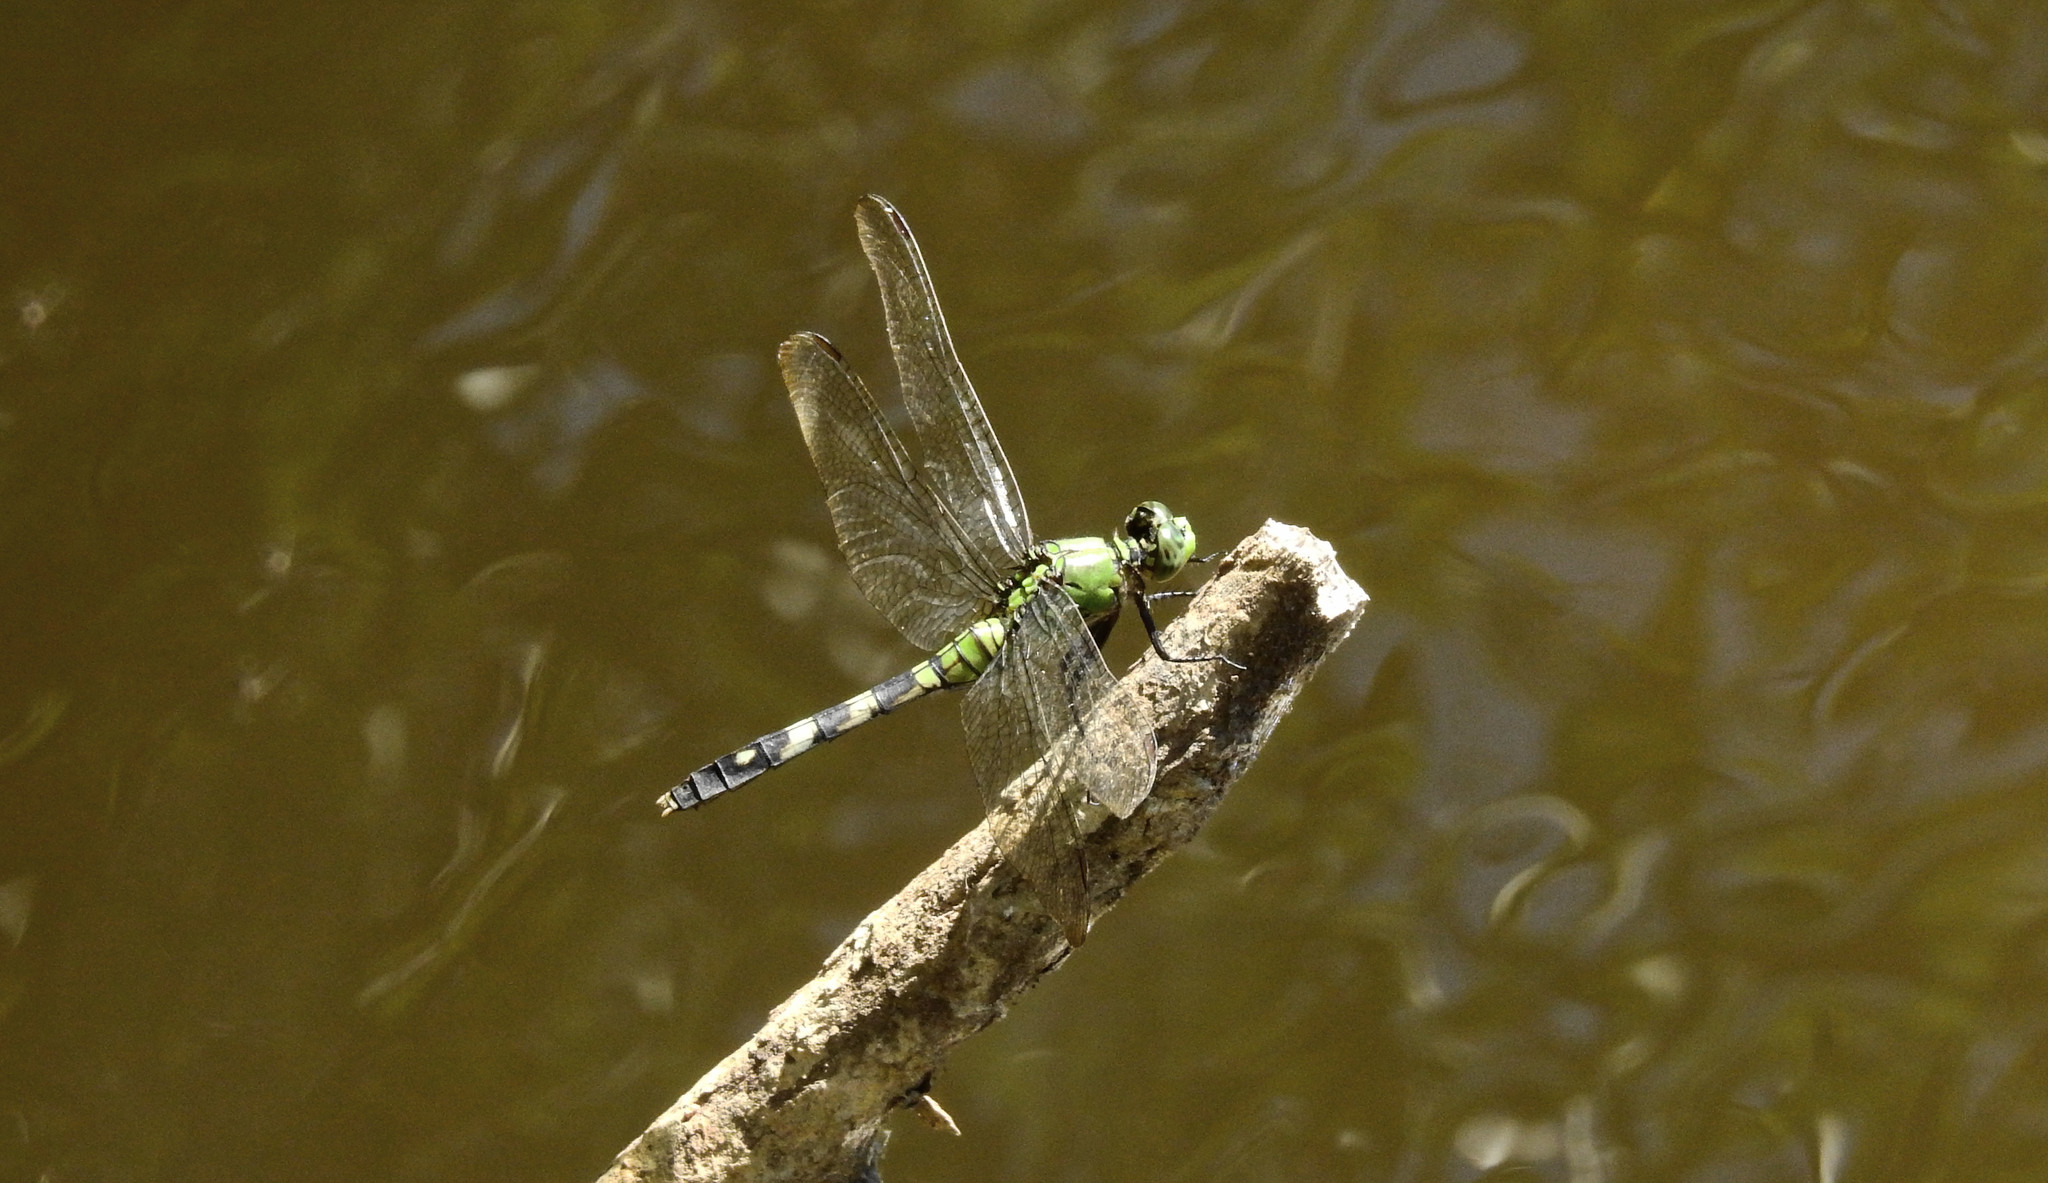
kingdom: Animalia
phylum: Arthropoda
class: Insecta
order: Odonata
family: Libellulidae
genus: Erythemis
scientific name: Erythemis simplicicollis
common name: Eastern pondhawk
